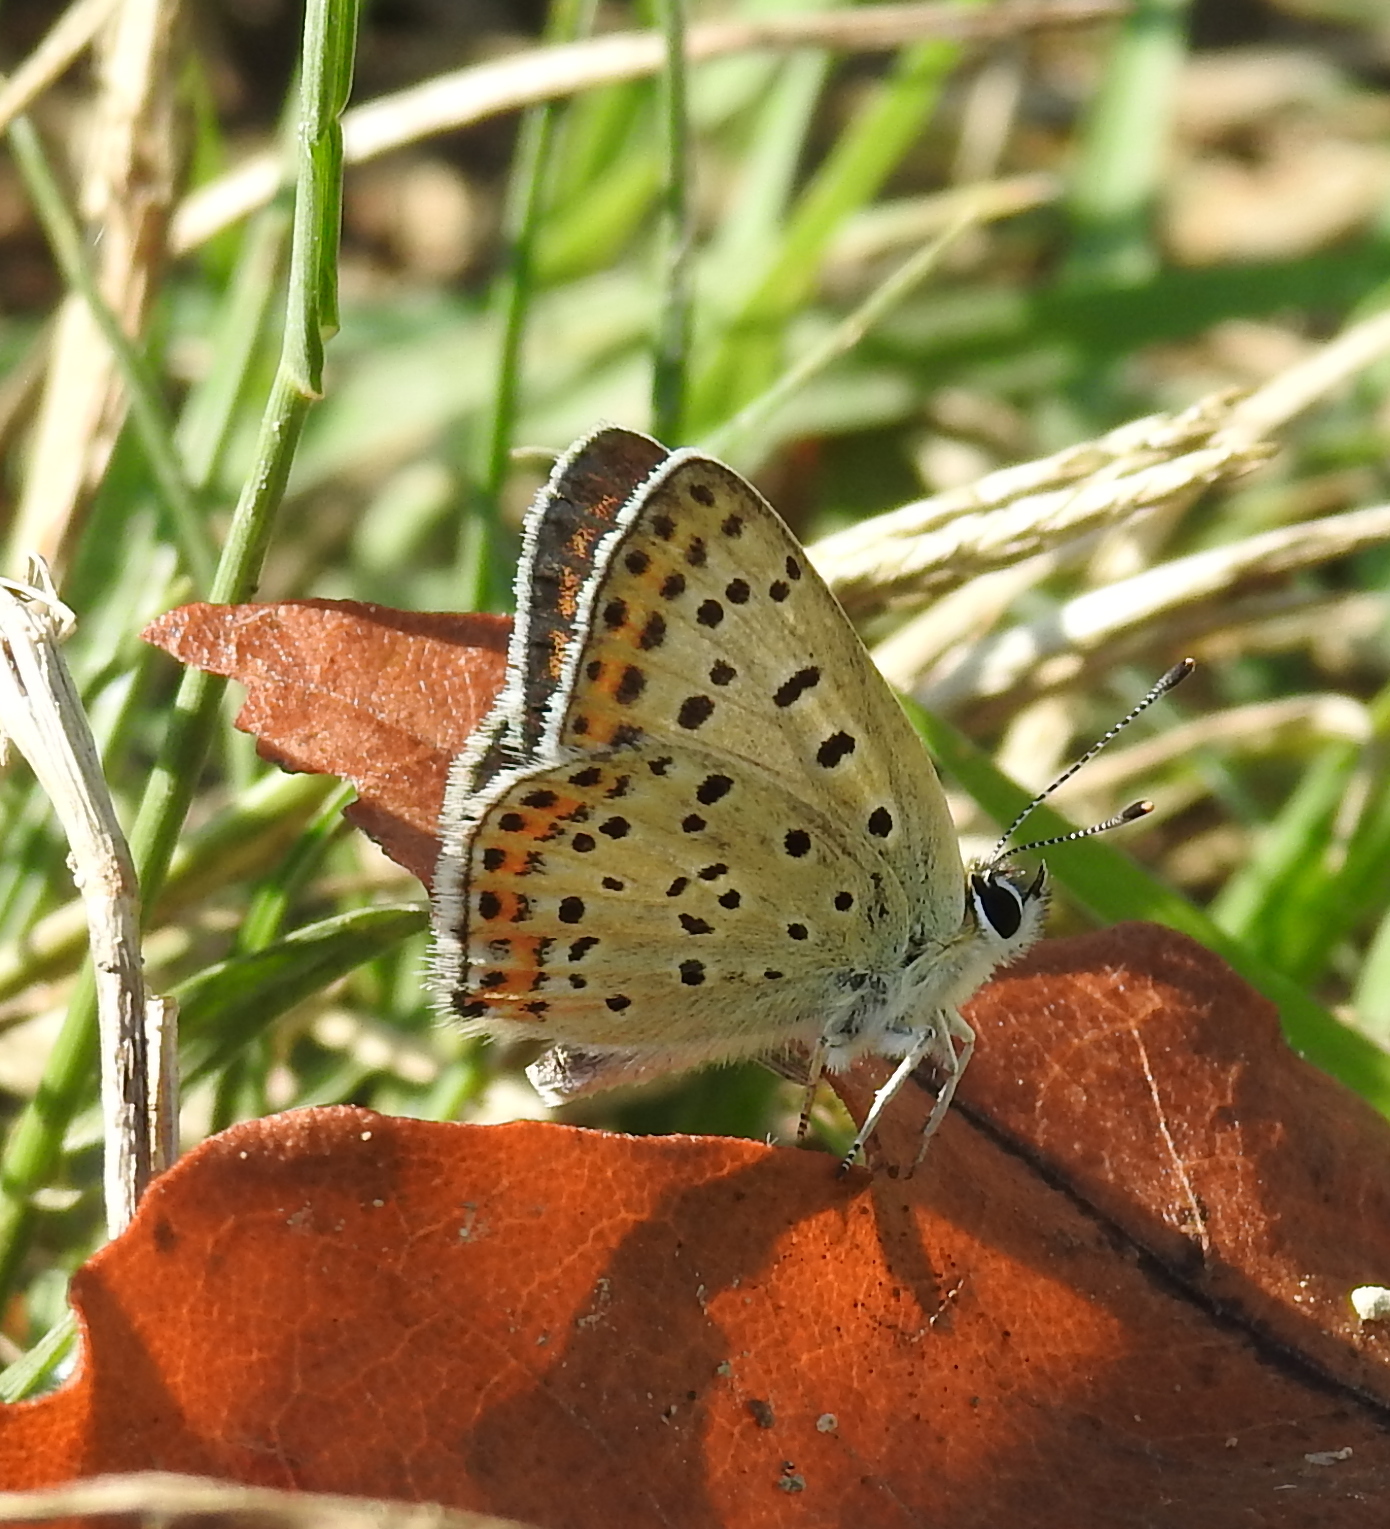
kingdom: Animalia
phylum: Arthropoda
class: Insecta
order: Lepidoptera
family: Lycaenidae
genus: Loweia
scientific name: Loweia tityrus
